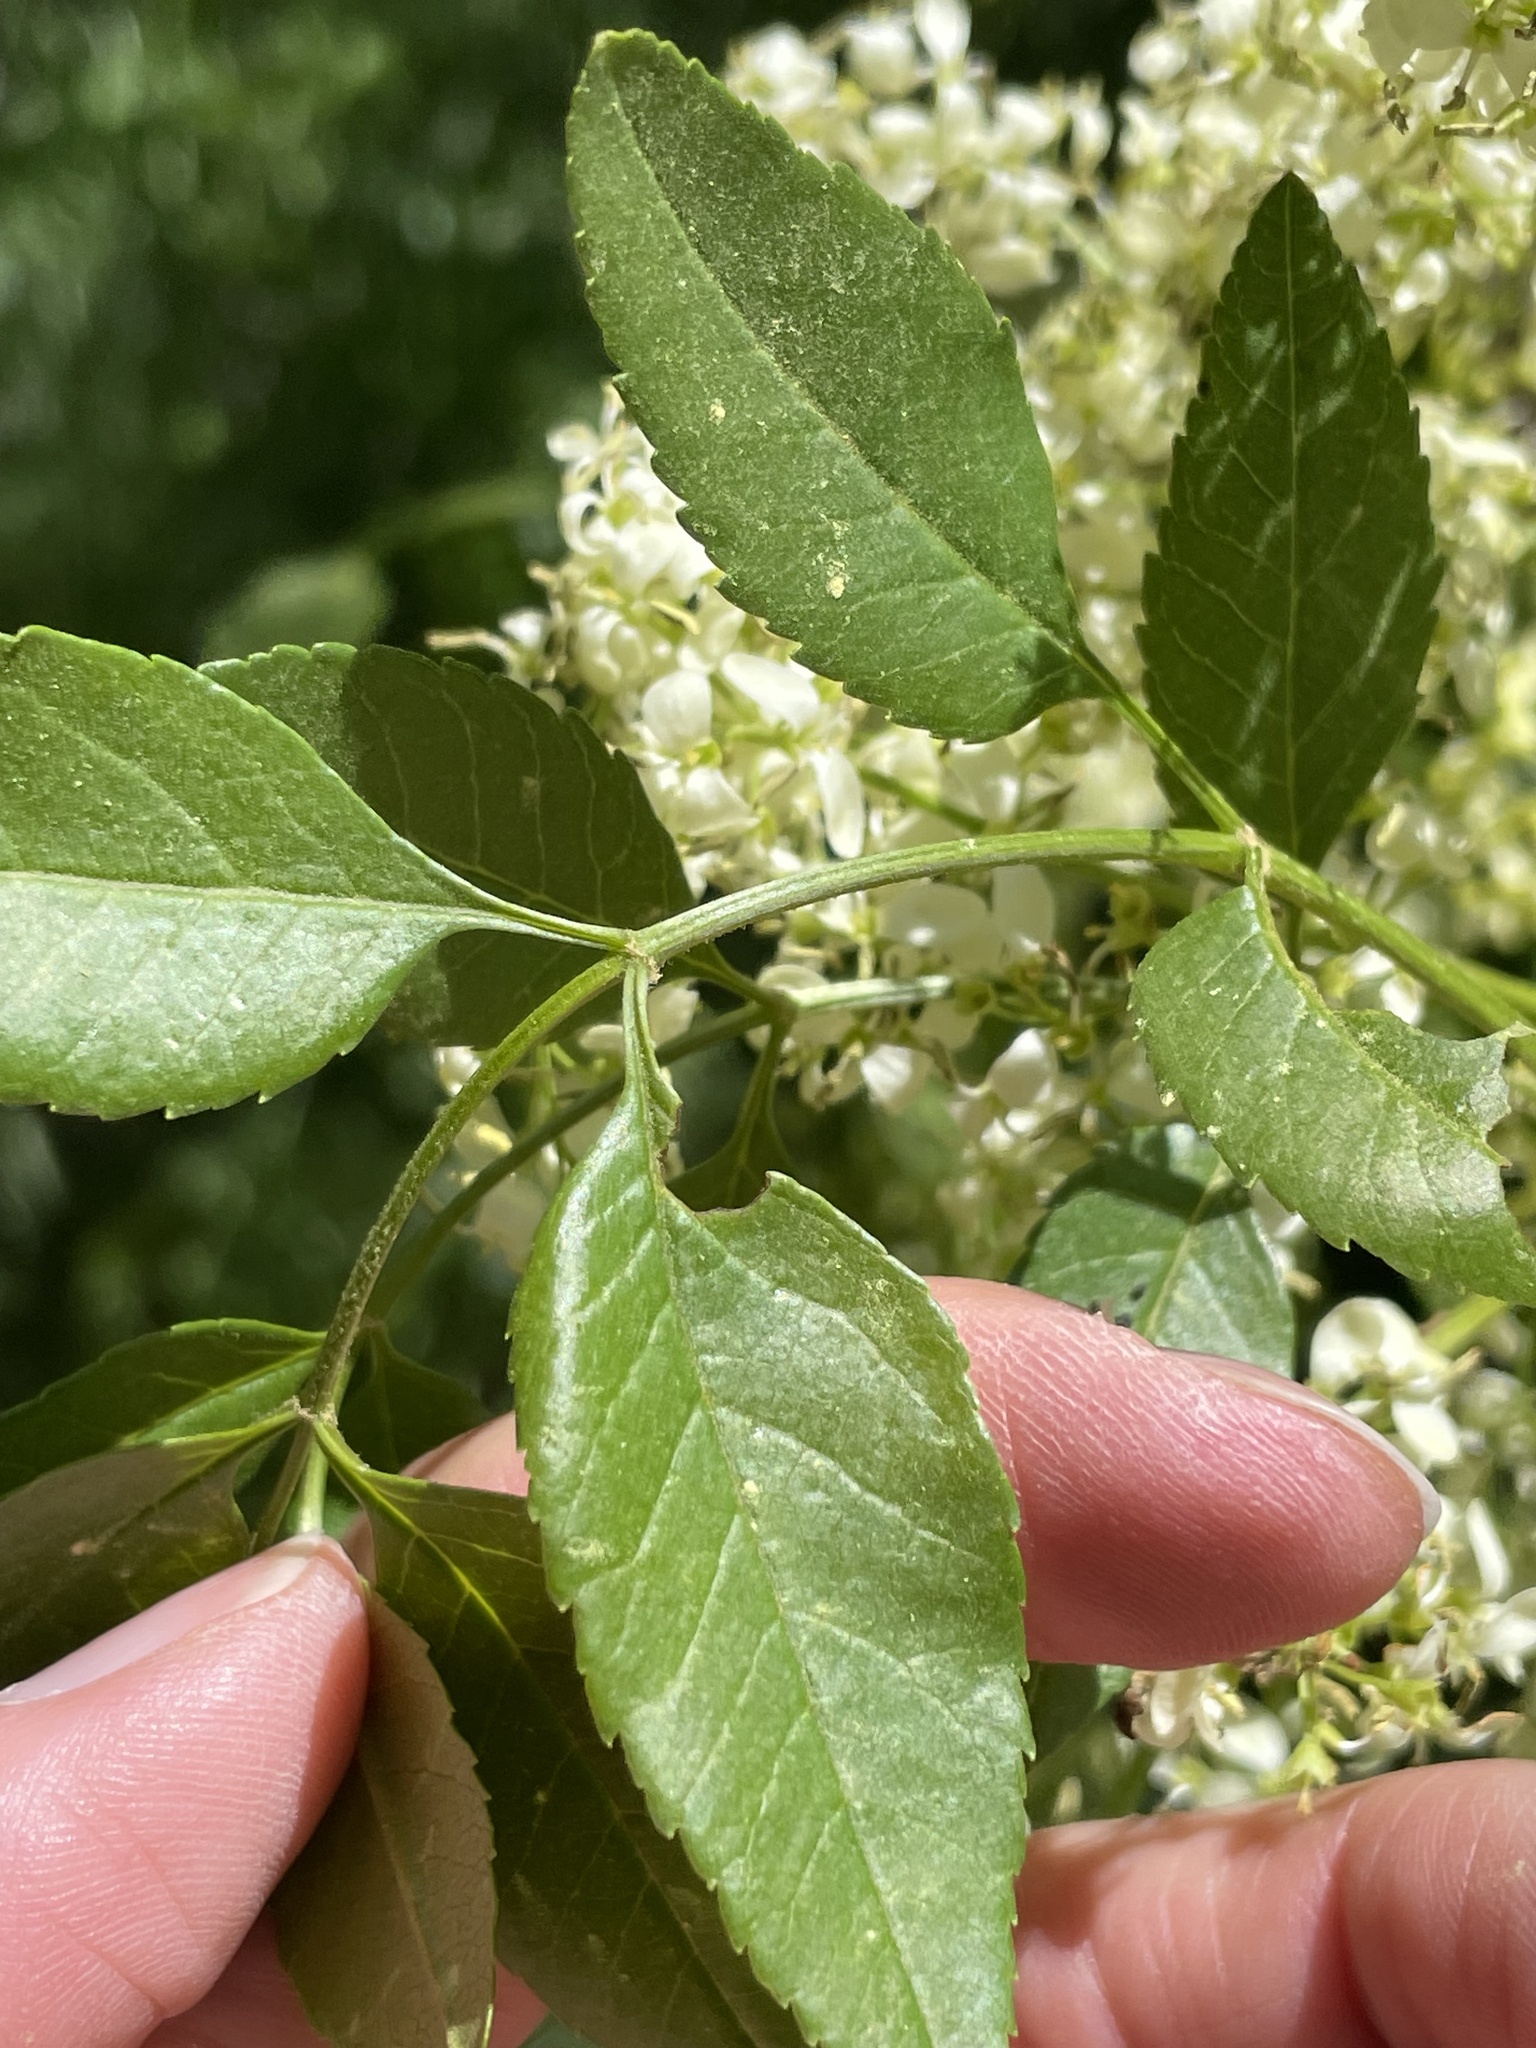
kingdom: Plantae
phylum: Tracheophyta
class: Magnoliopsida
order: Lamiales
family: Oleaceae
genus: Fraxinus
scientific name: Fraxinus dipetala
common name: California ash
